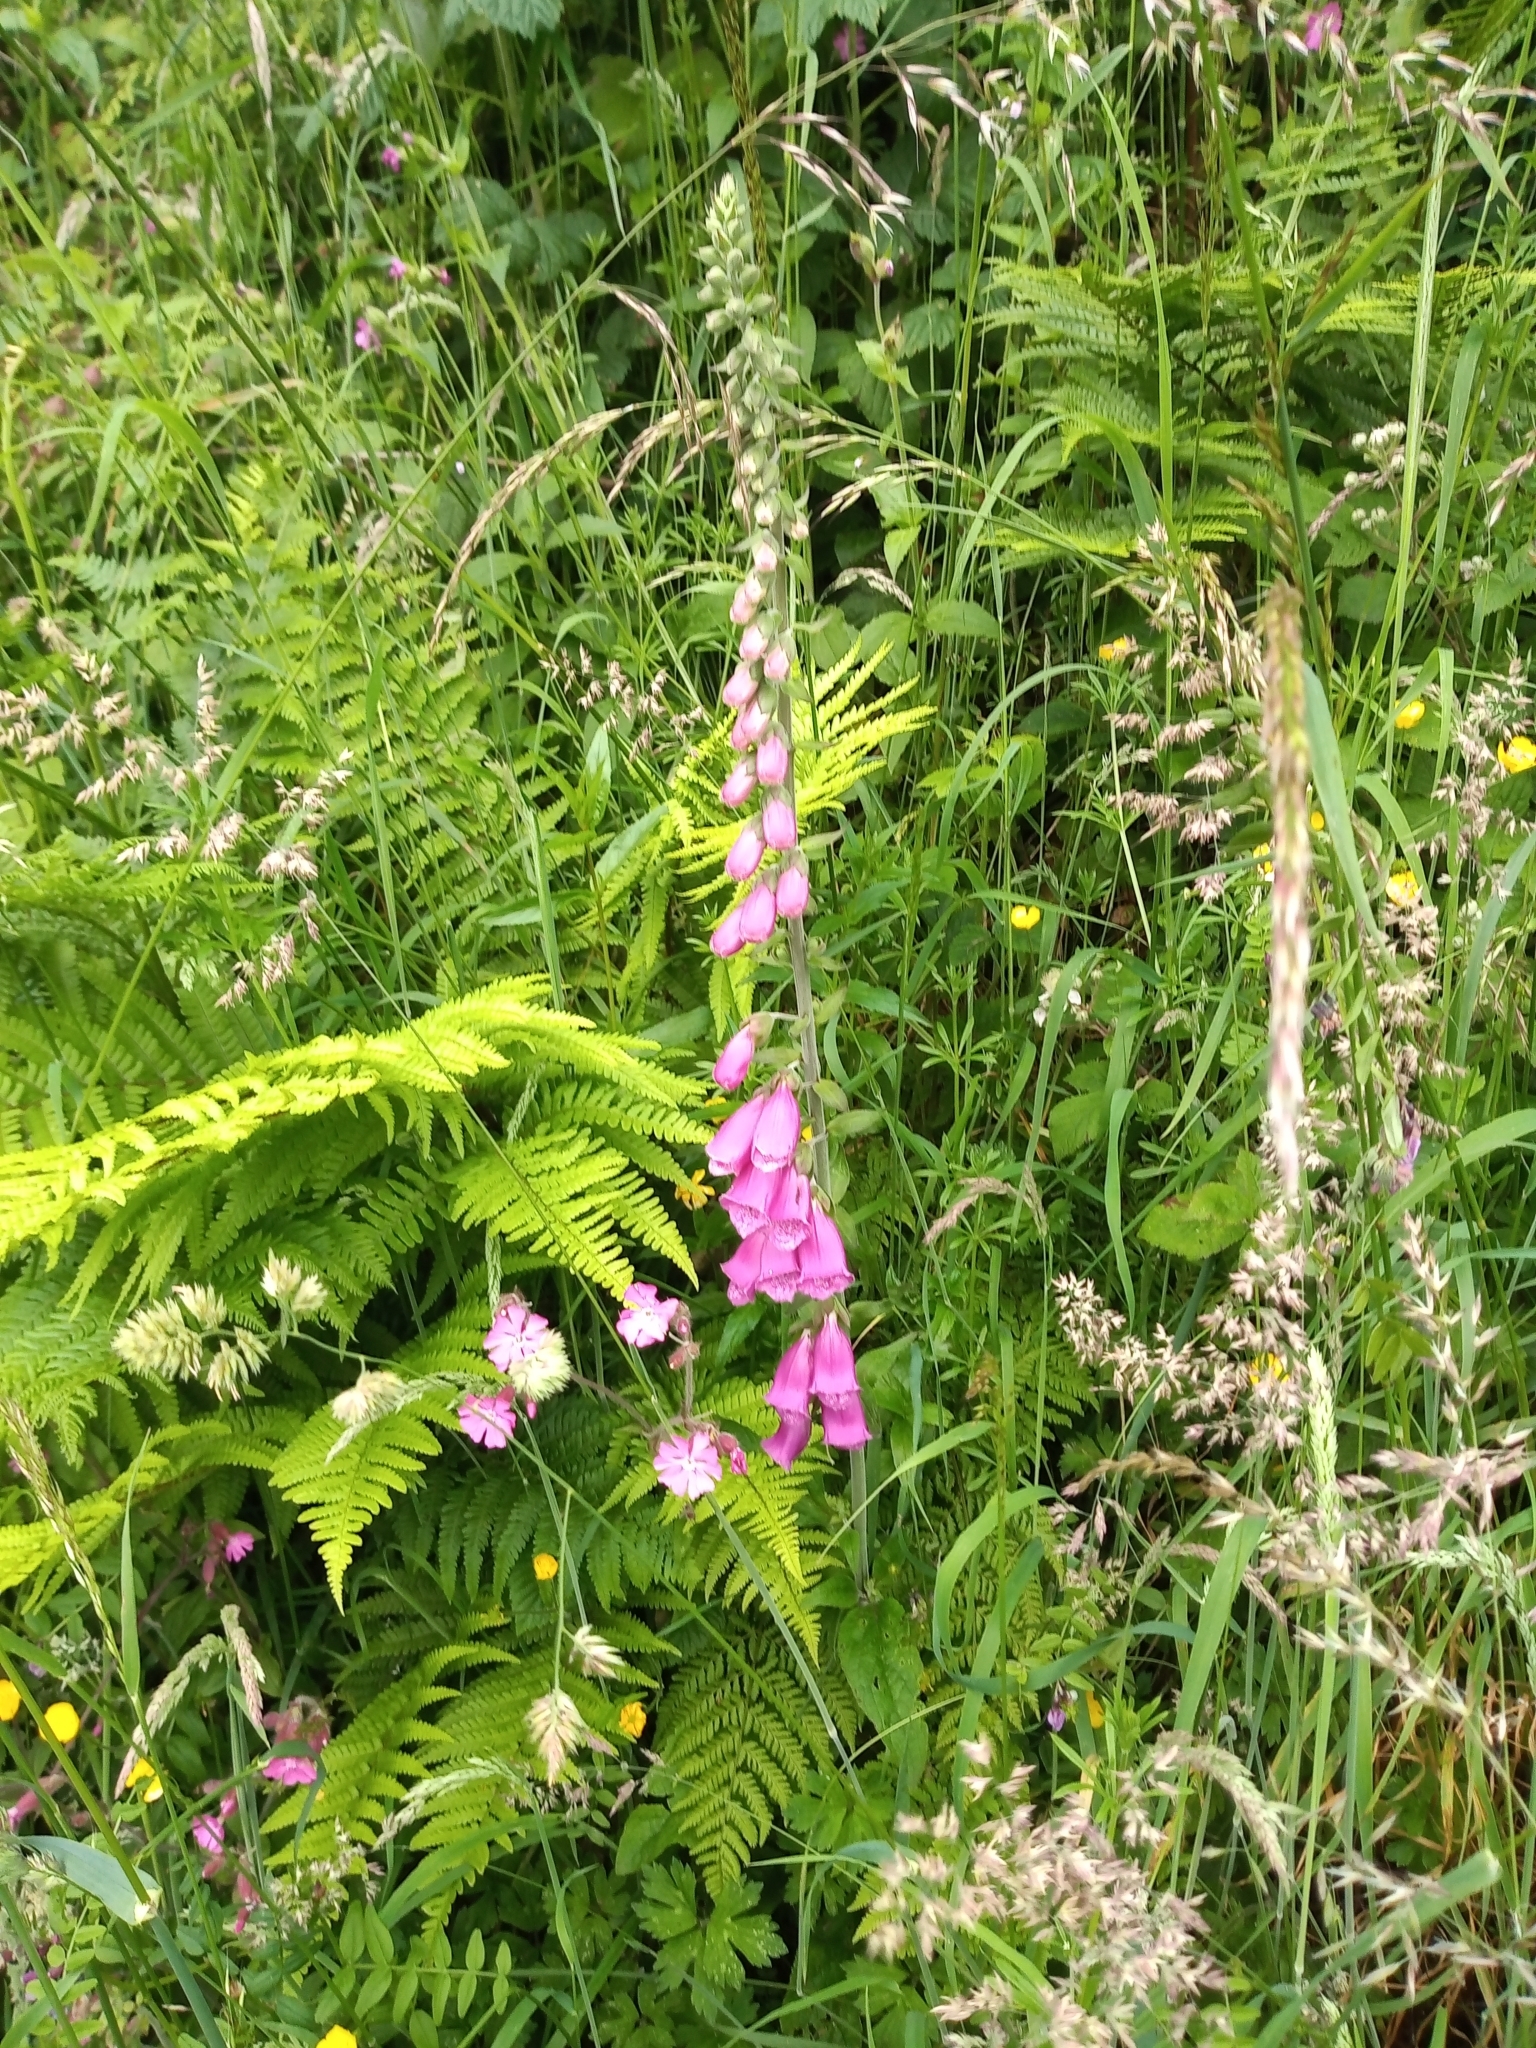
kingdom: Plantae
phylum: Tracheophyta
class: Magnoliopsida
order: Lamiales
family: Plantaginaceae
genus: Digitalis
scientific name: Digitalis purpurea
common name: Foxglove
